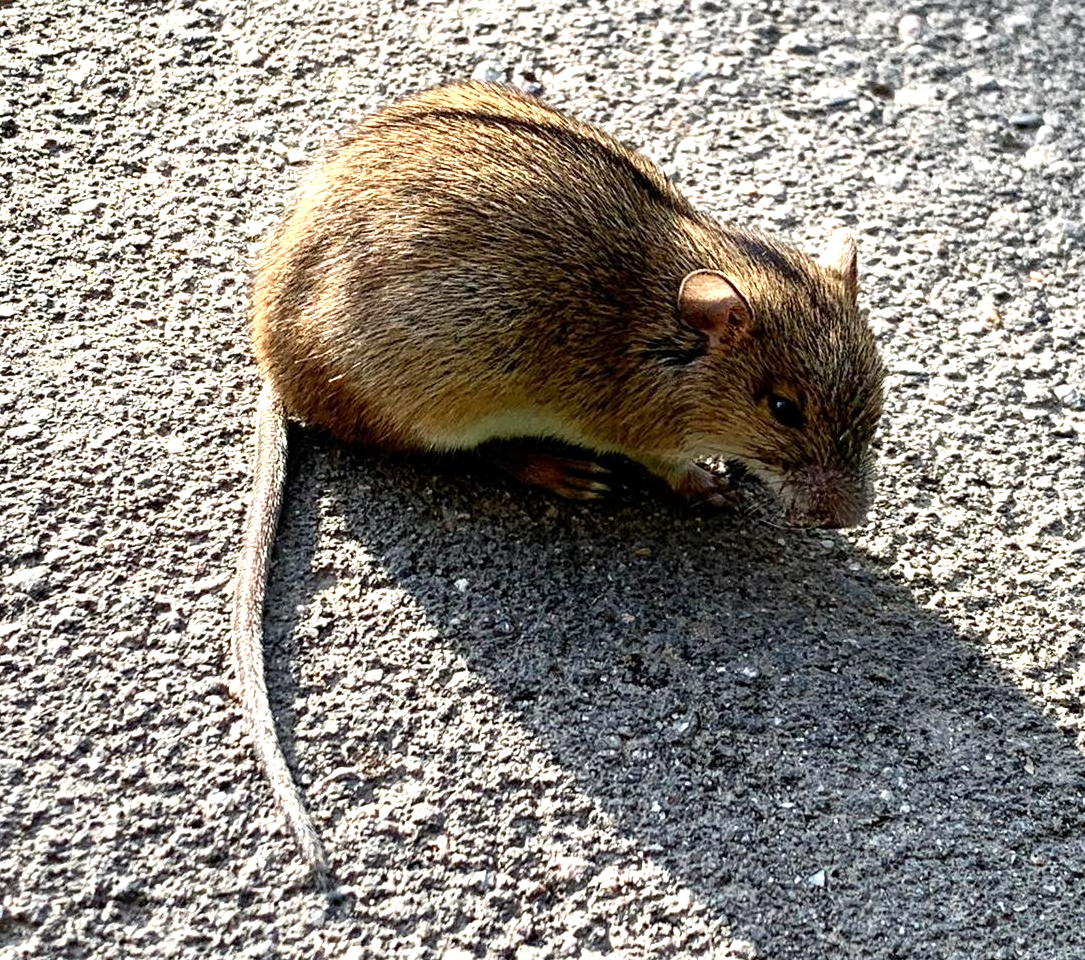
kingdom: Animalia
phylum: Chordata
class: Mammalia
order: Rodentia
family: Muridae
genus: Apodemus
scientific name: Apodemus agrarius
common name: Striped field mouse
